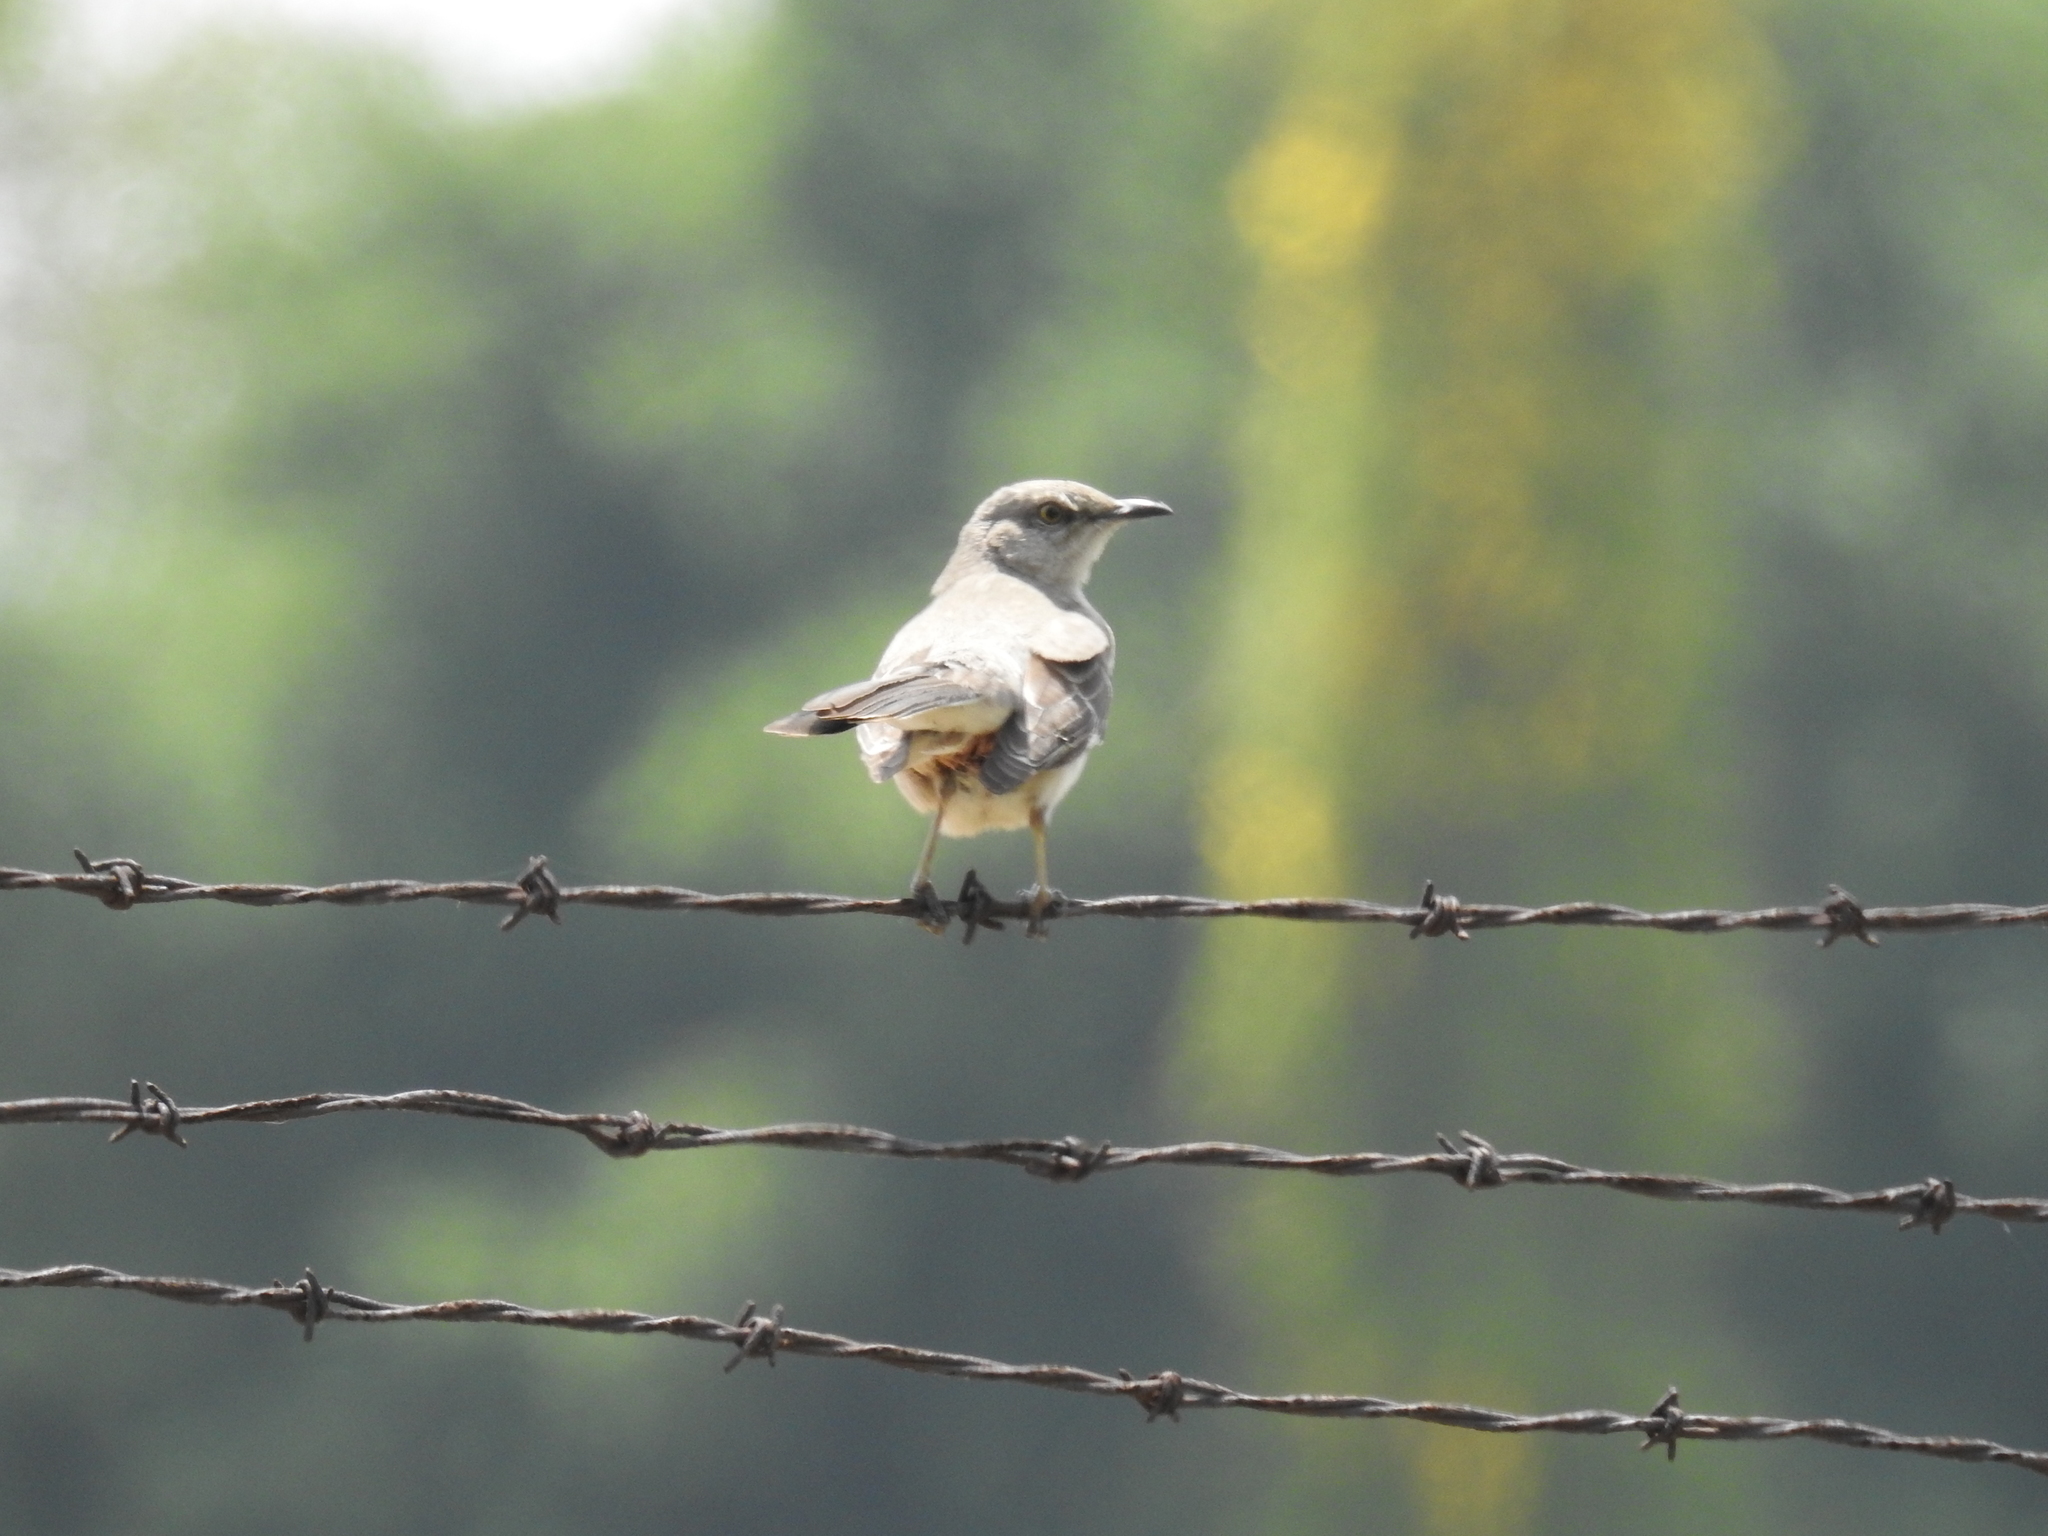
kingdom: Animalia
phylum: Chordata
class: Aves
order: Passeriformes
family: Mimidae
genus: Mimus
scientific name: Mimus polyglottos
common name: Northern mockingbird
